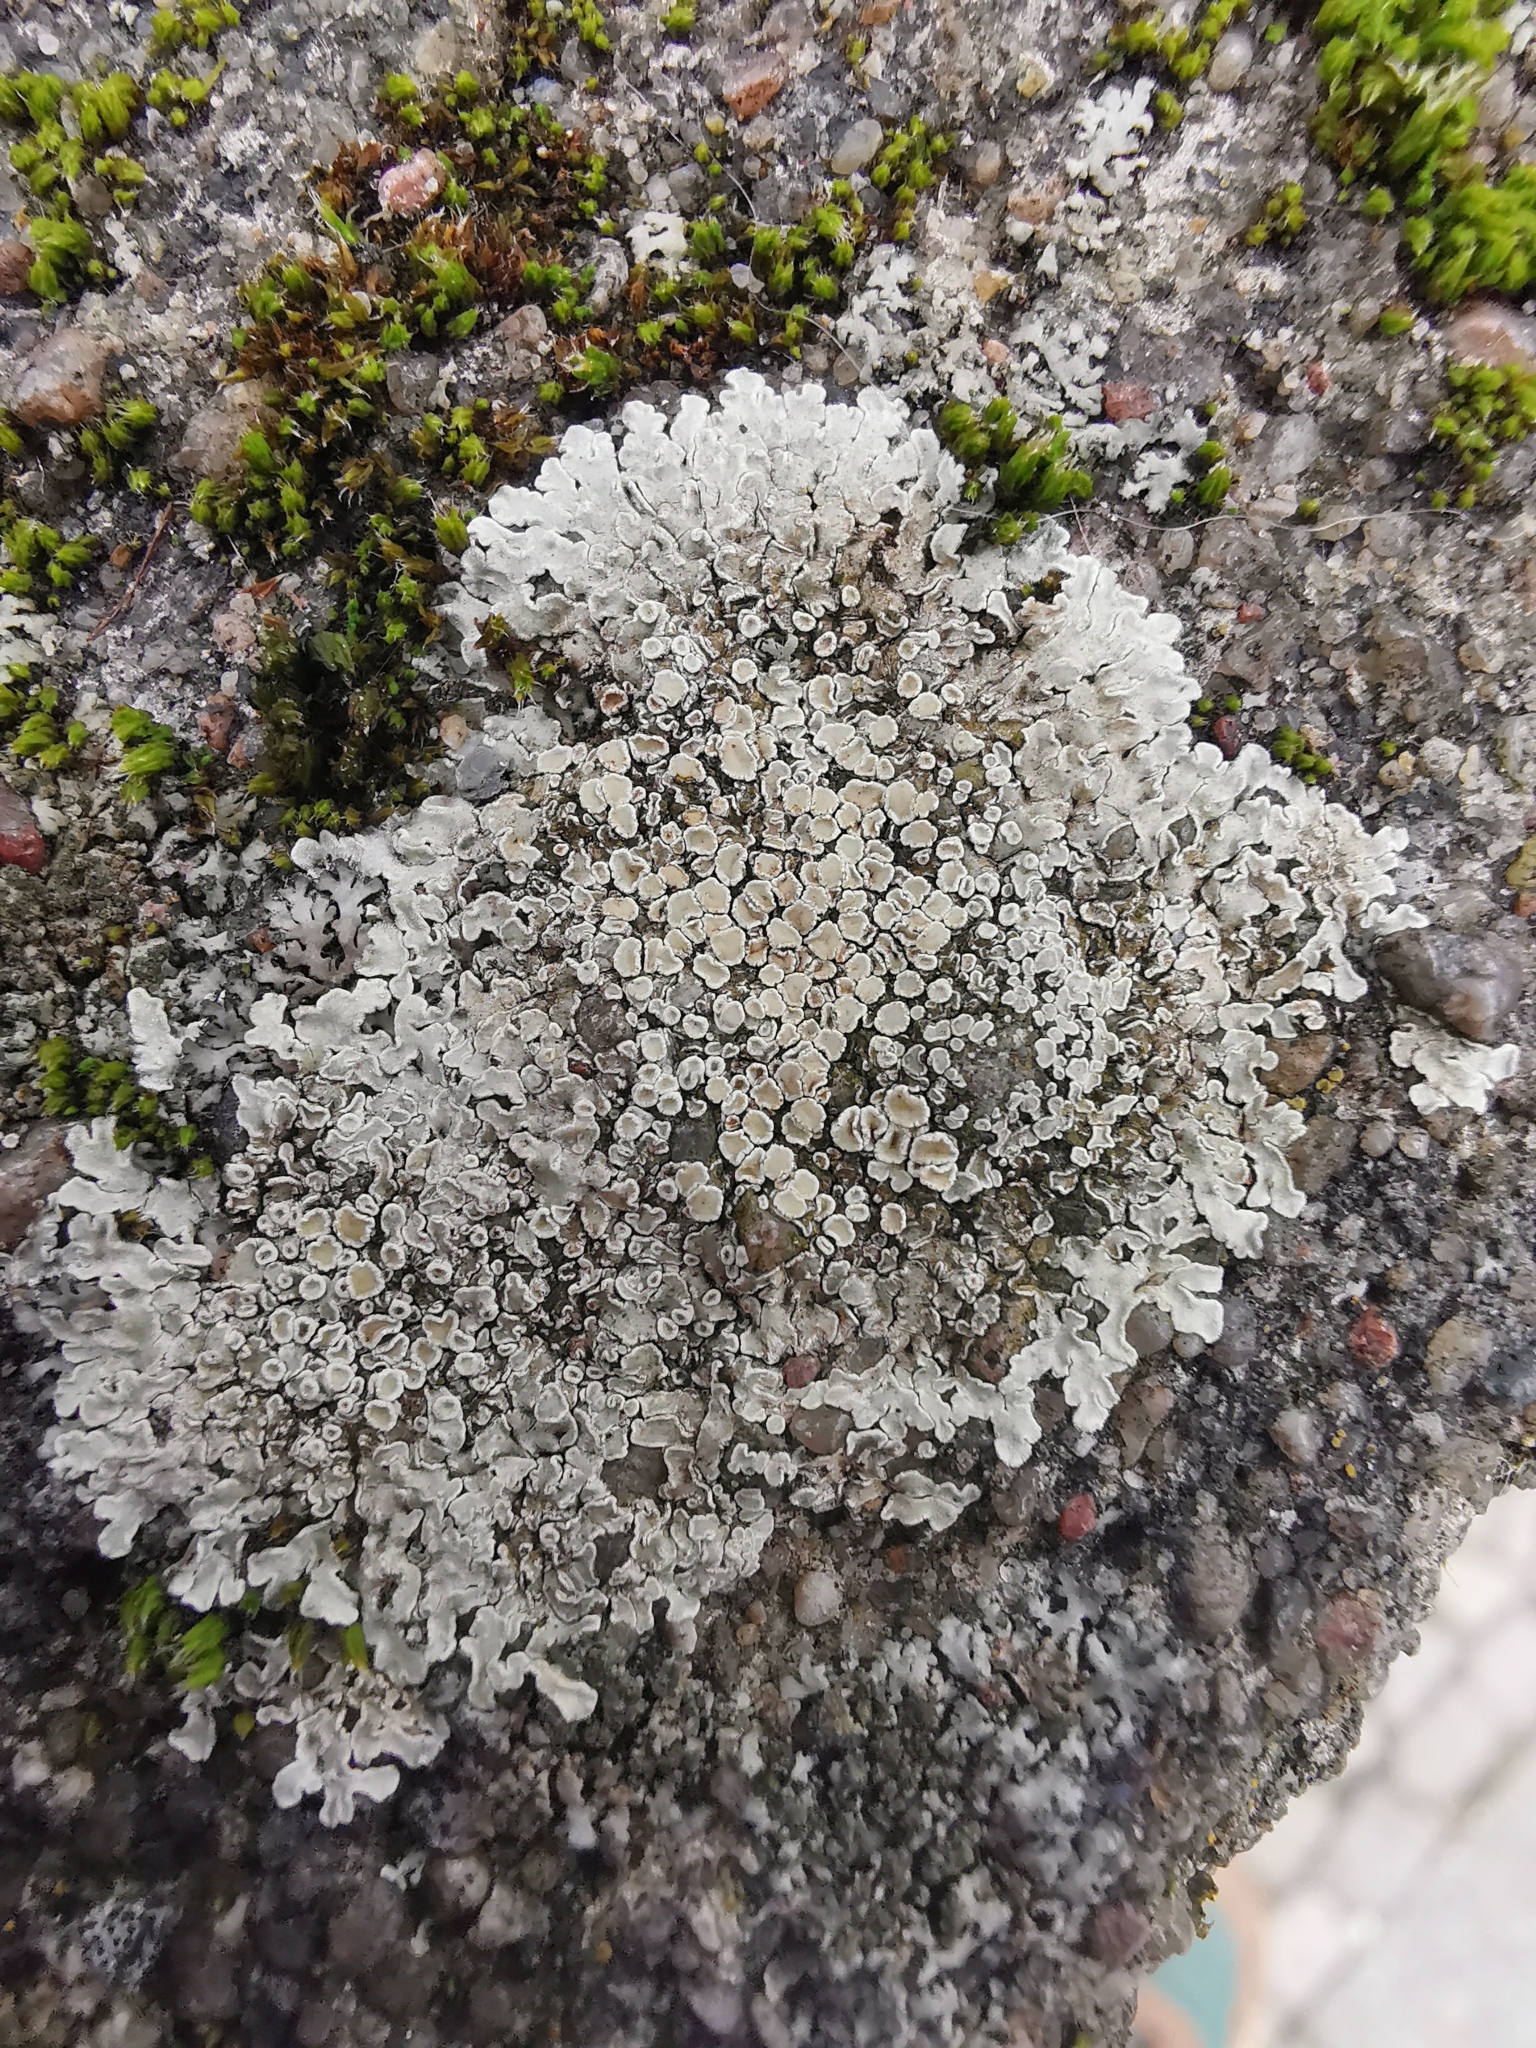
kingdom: Fungi
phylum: Ascomycota
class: Lecanoromycetes
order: Lecanorales
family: Lecanoraceae
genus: Protoparmeliopsis
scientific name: Protoparmeliopsis muralis
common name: Stonewall rim lichen
